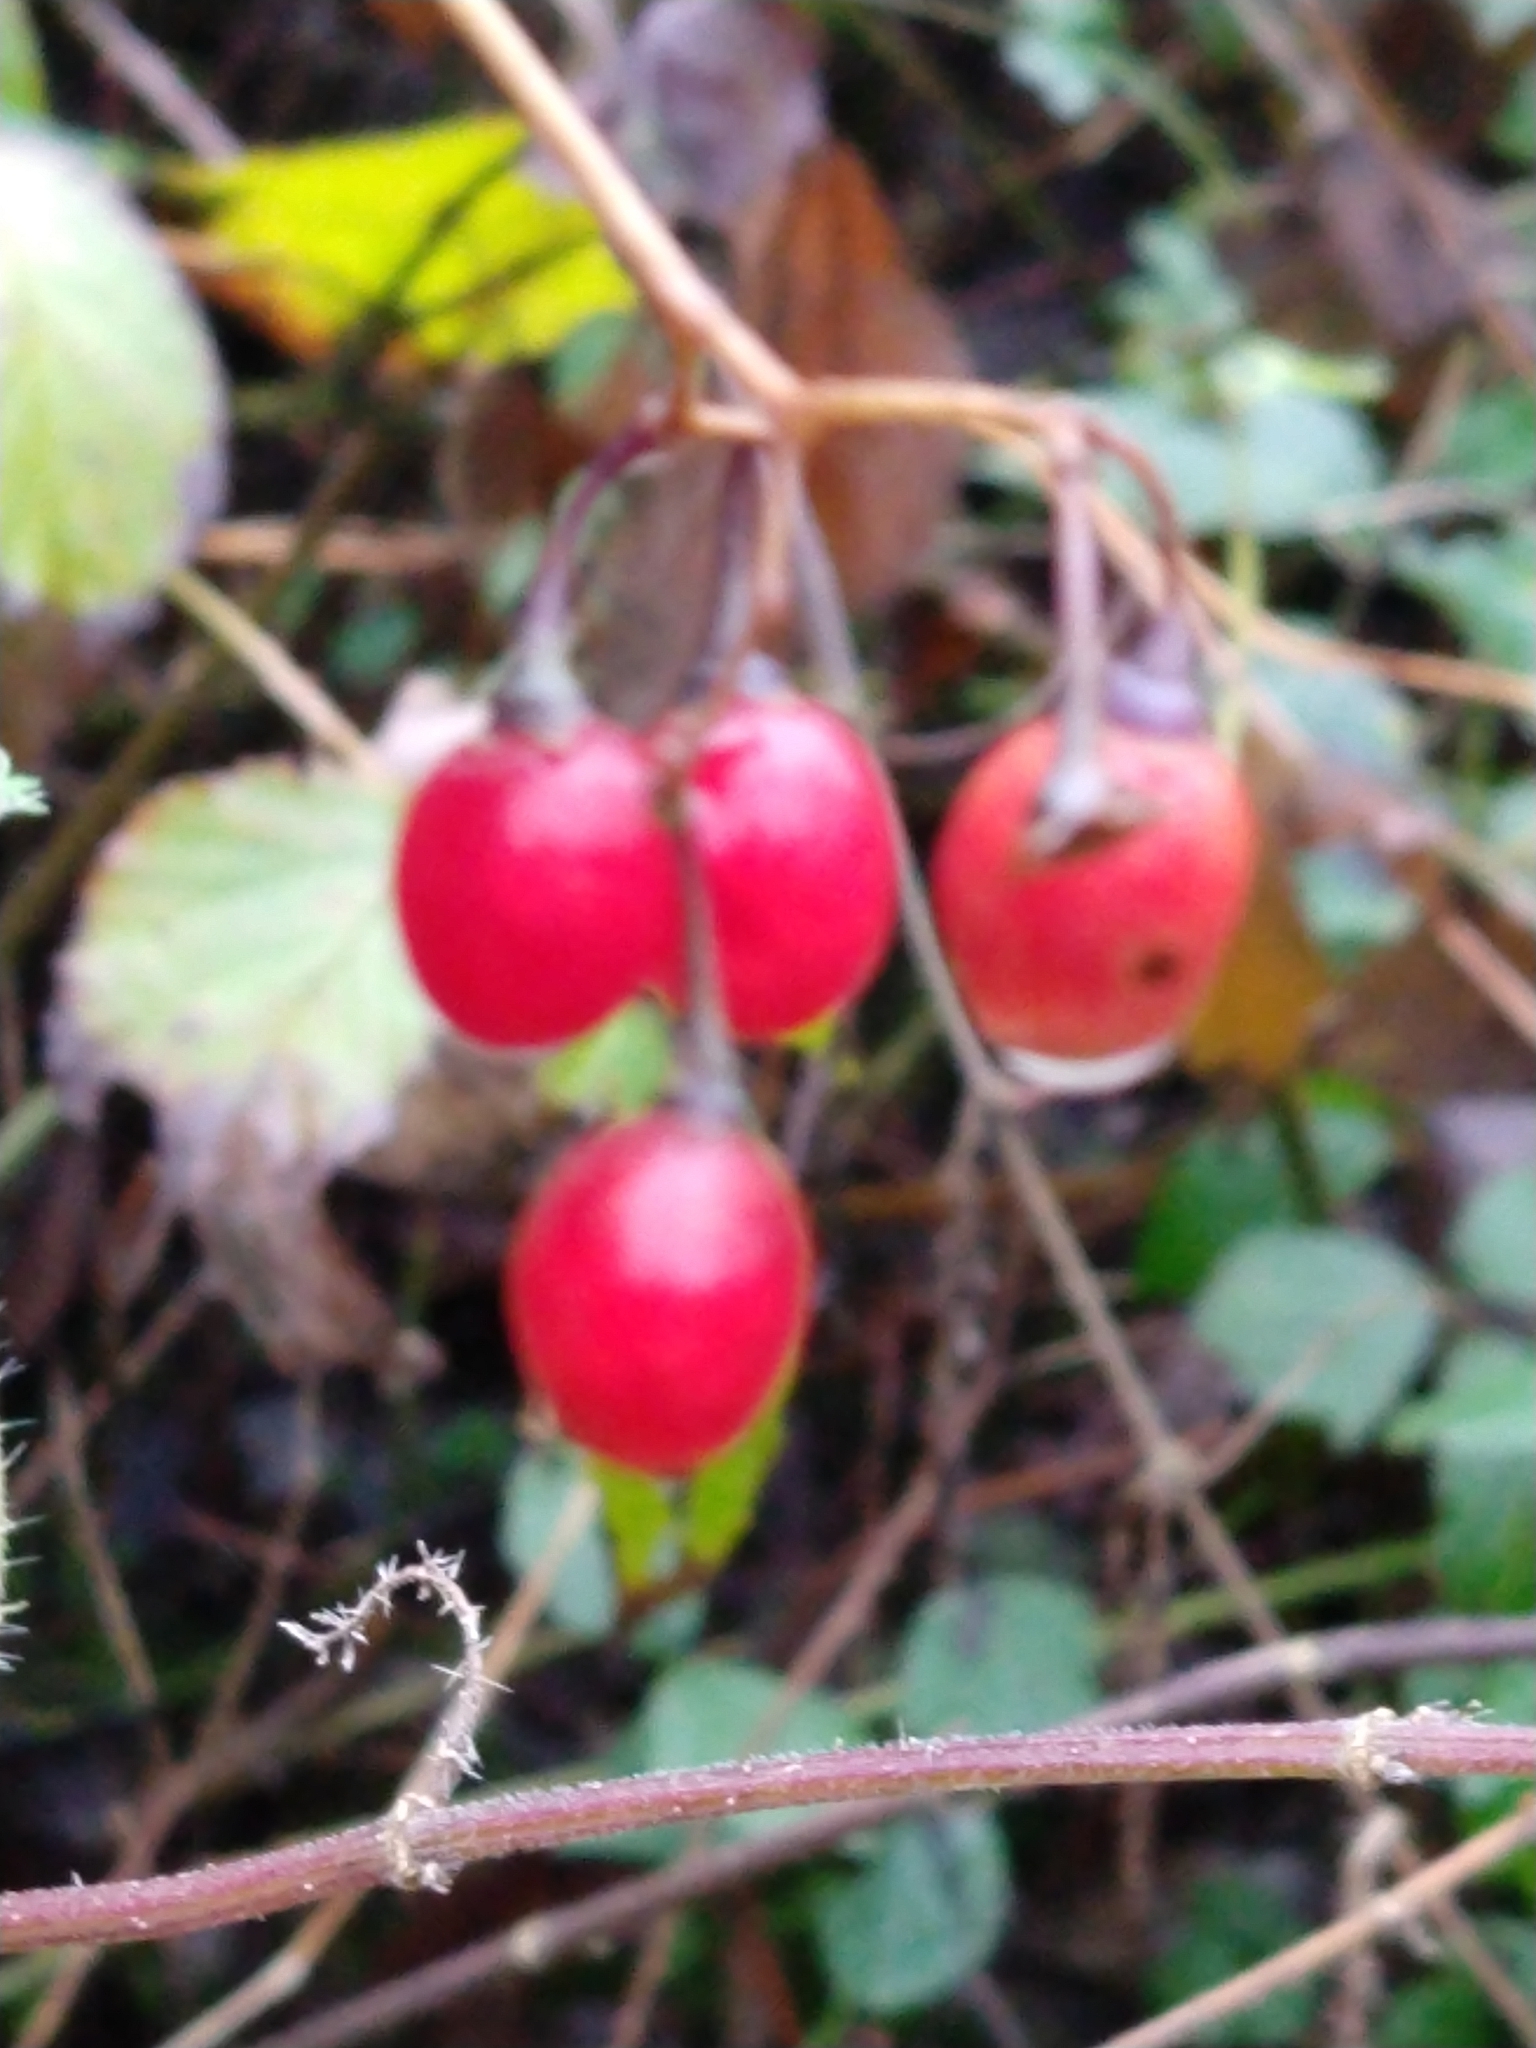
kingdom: Plantae
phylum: Tracheophyta
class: Magnoliopsida
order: Solanales
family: Solanaceae
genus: Solanum
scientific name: Solanum dulcamara
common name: Climbing nightshade
